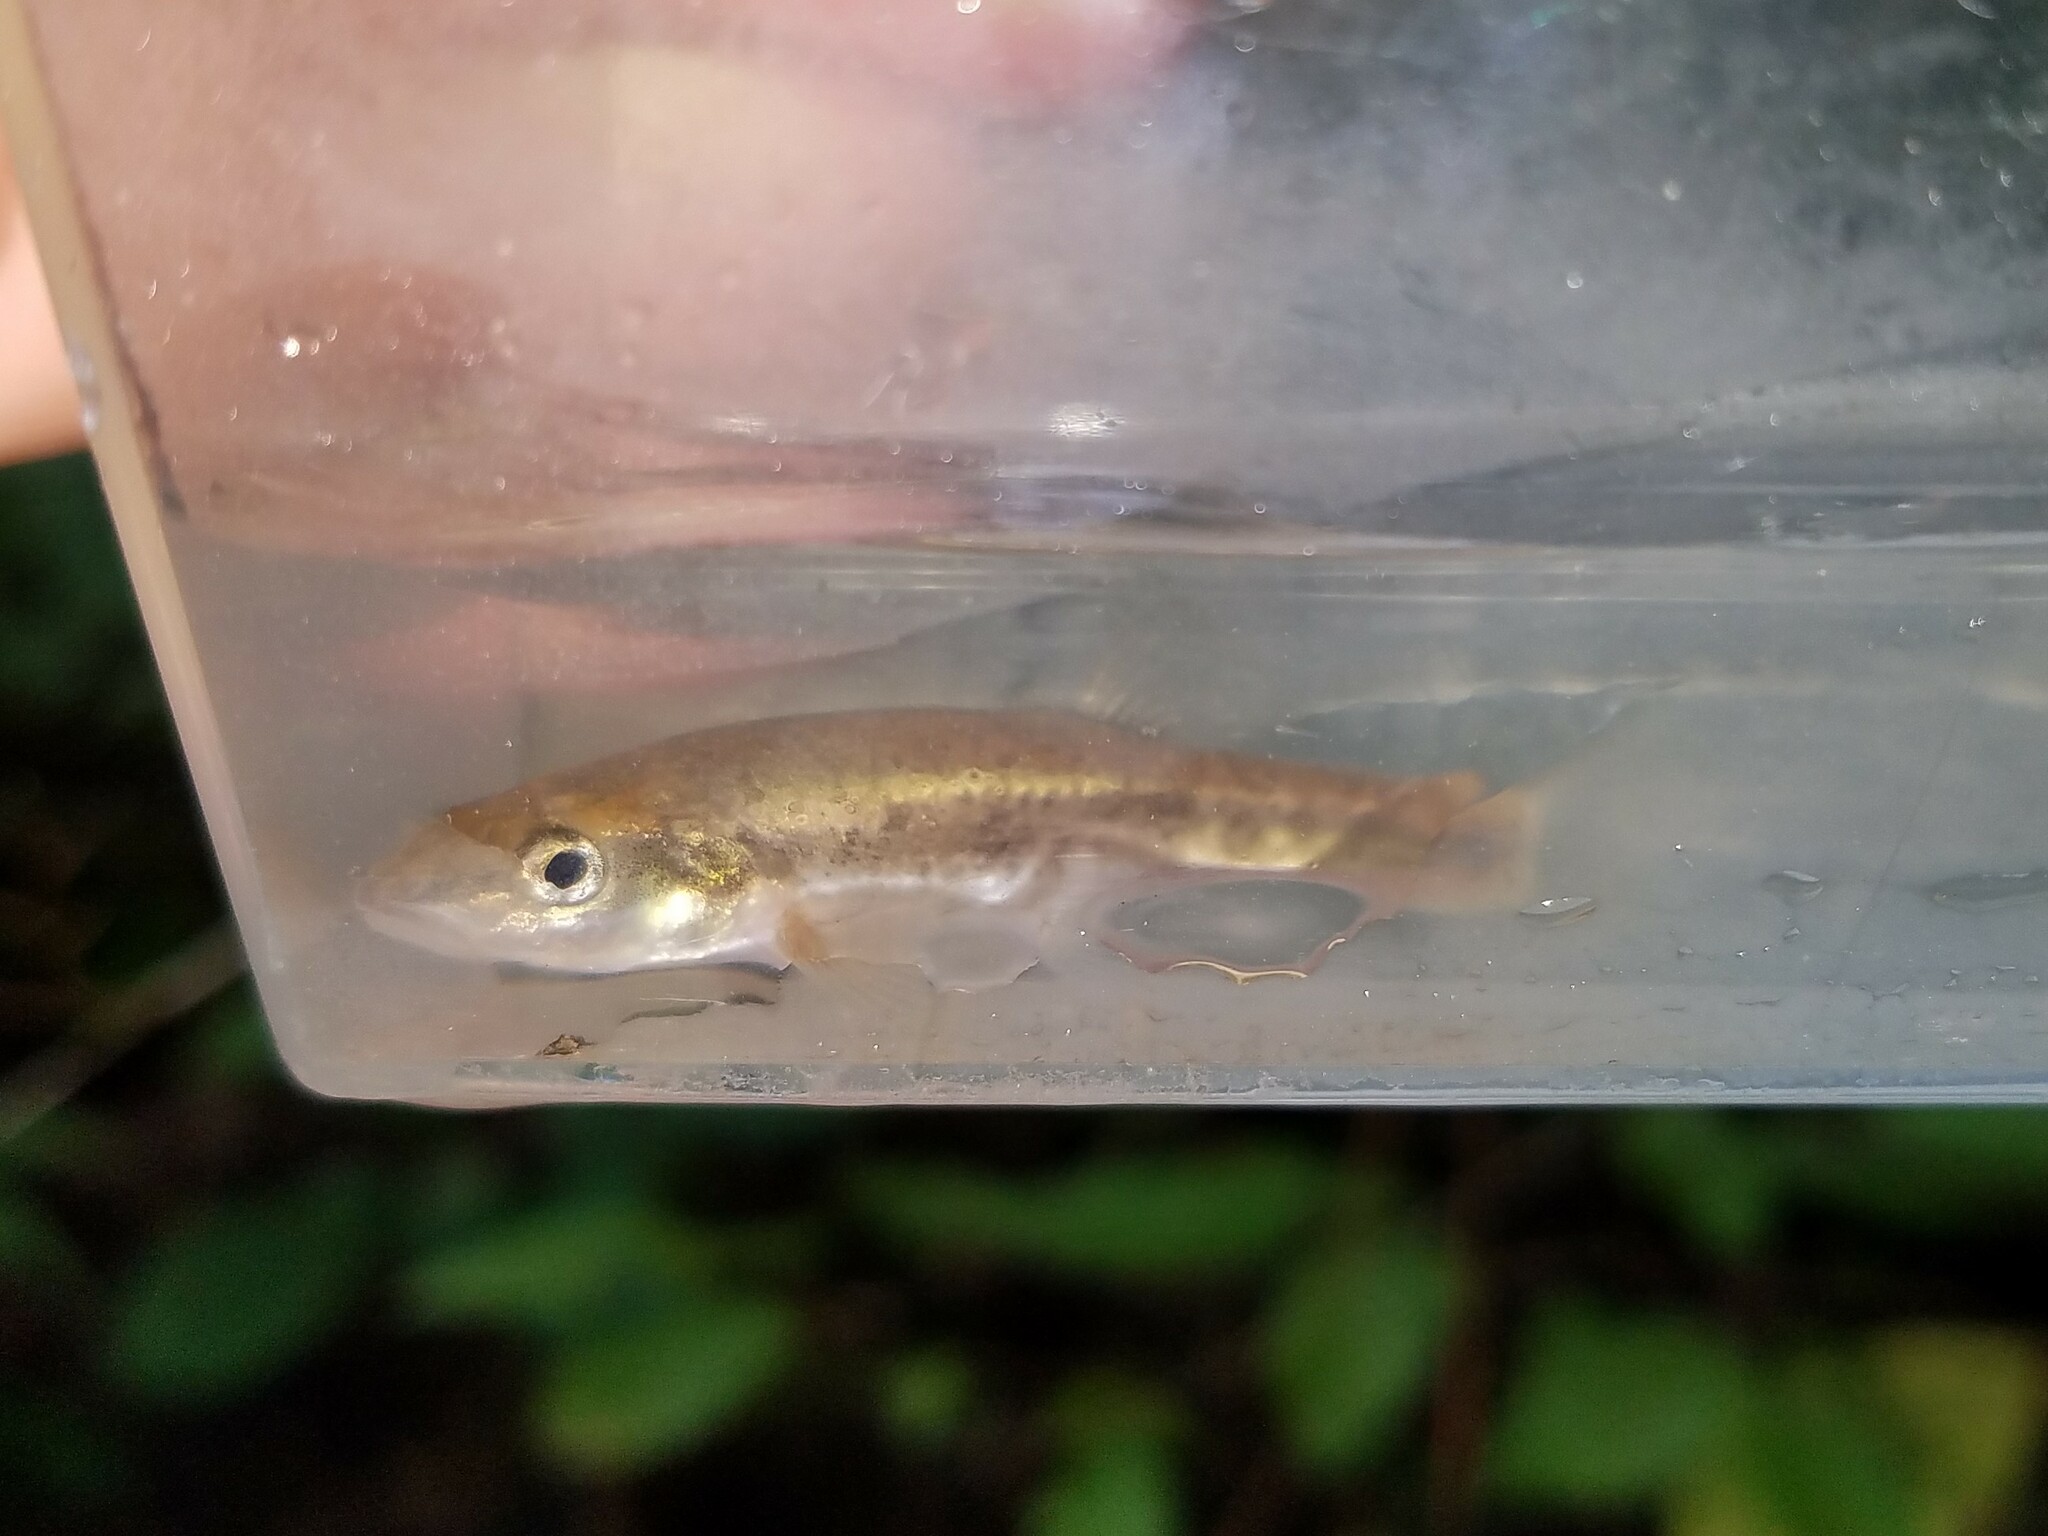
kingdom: Animalia
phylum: Chordata
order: Cypriniformes
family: Cyprinidae
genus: Rhinichthys
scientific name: Rhinichthys obtusus
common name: Western blacknose dace
